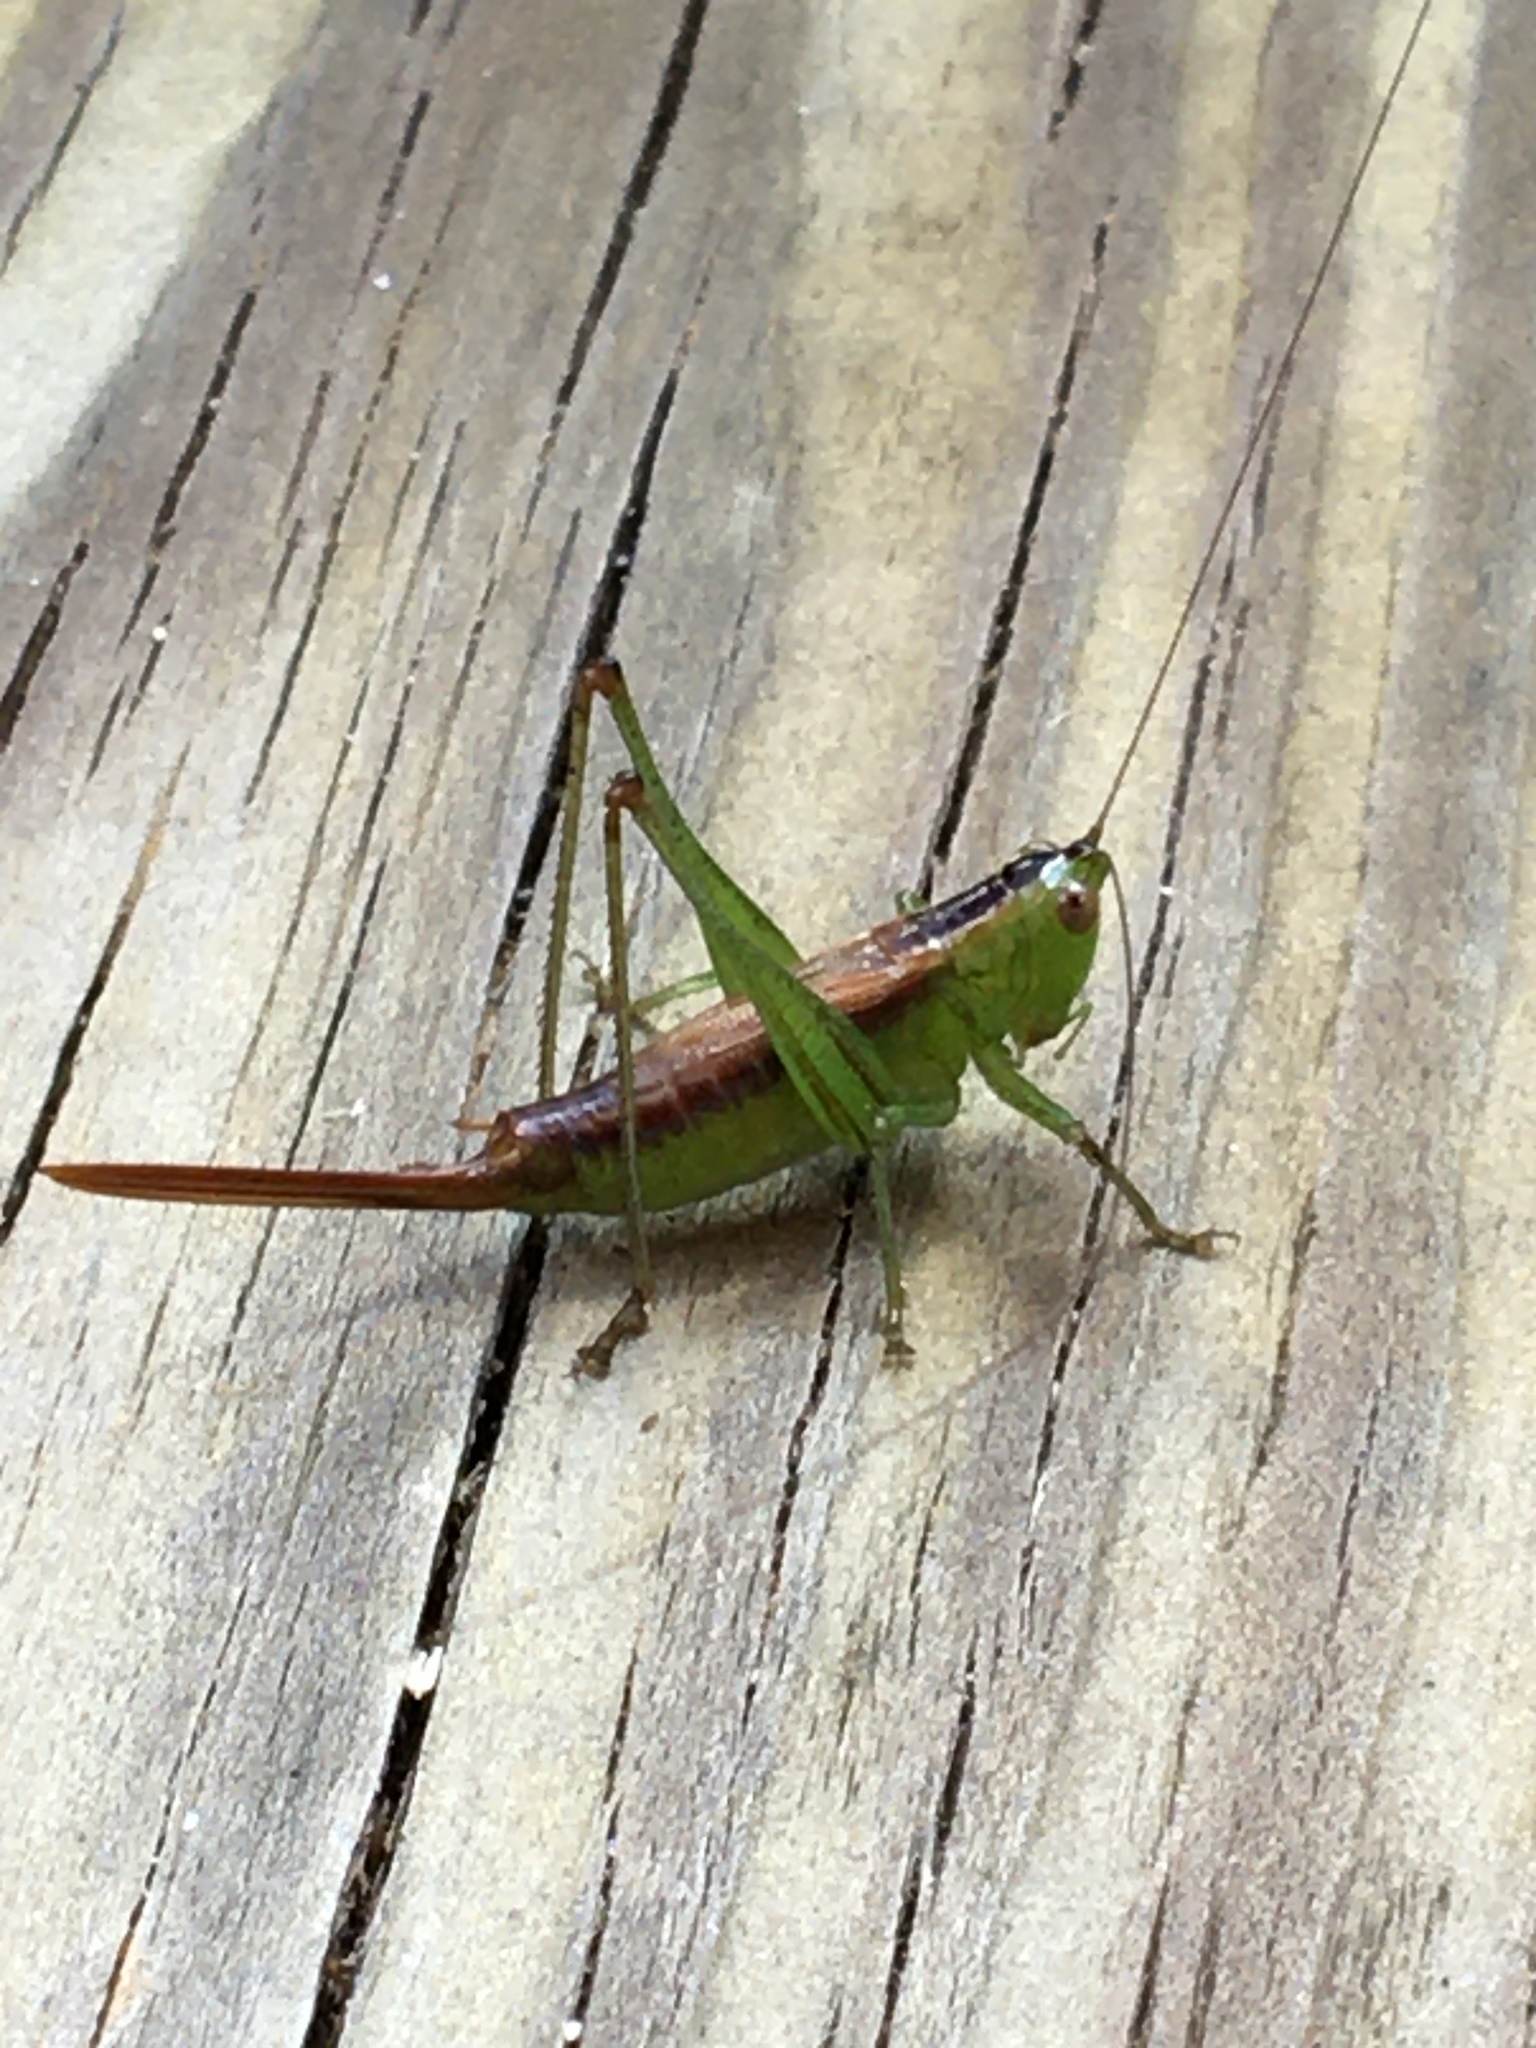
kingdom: Animalia
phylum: Arthropoda
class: Insecta
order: Orthoptera
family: Tettigoniidae
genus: Conocephalus
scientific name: Conocephalus brevipennis
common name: Short-winged meadow katydid
